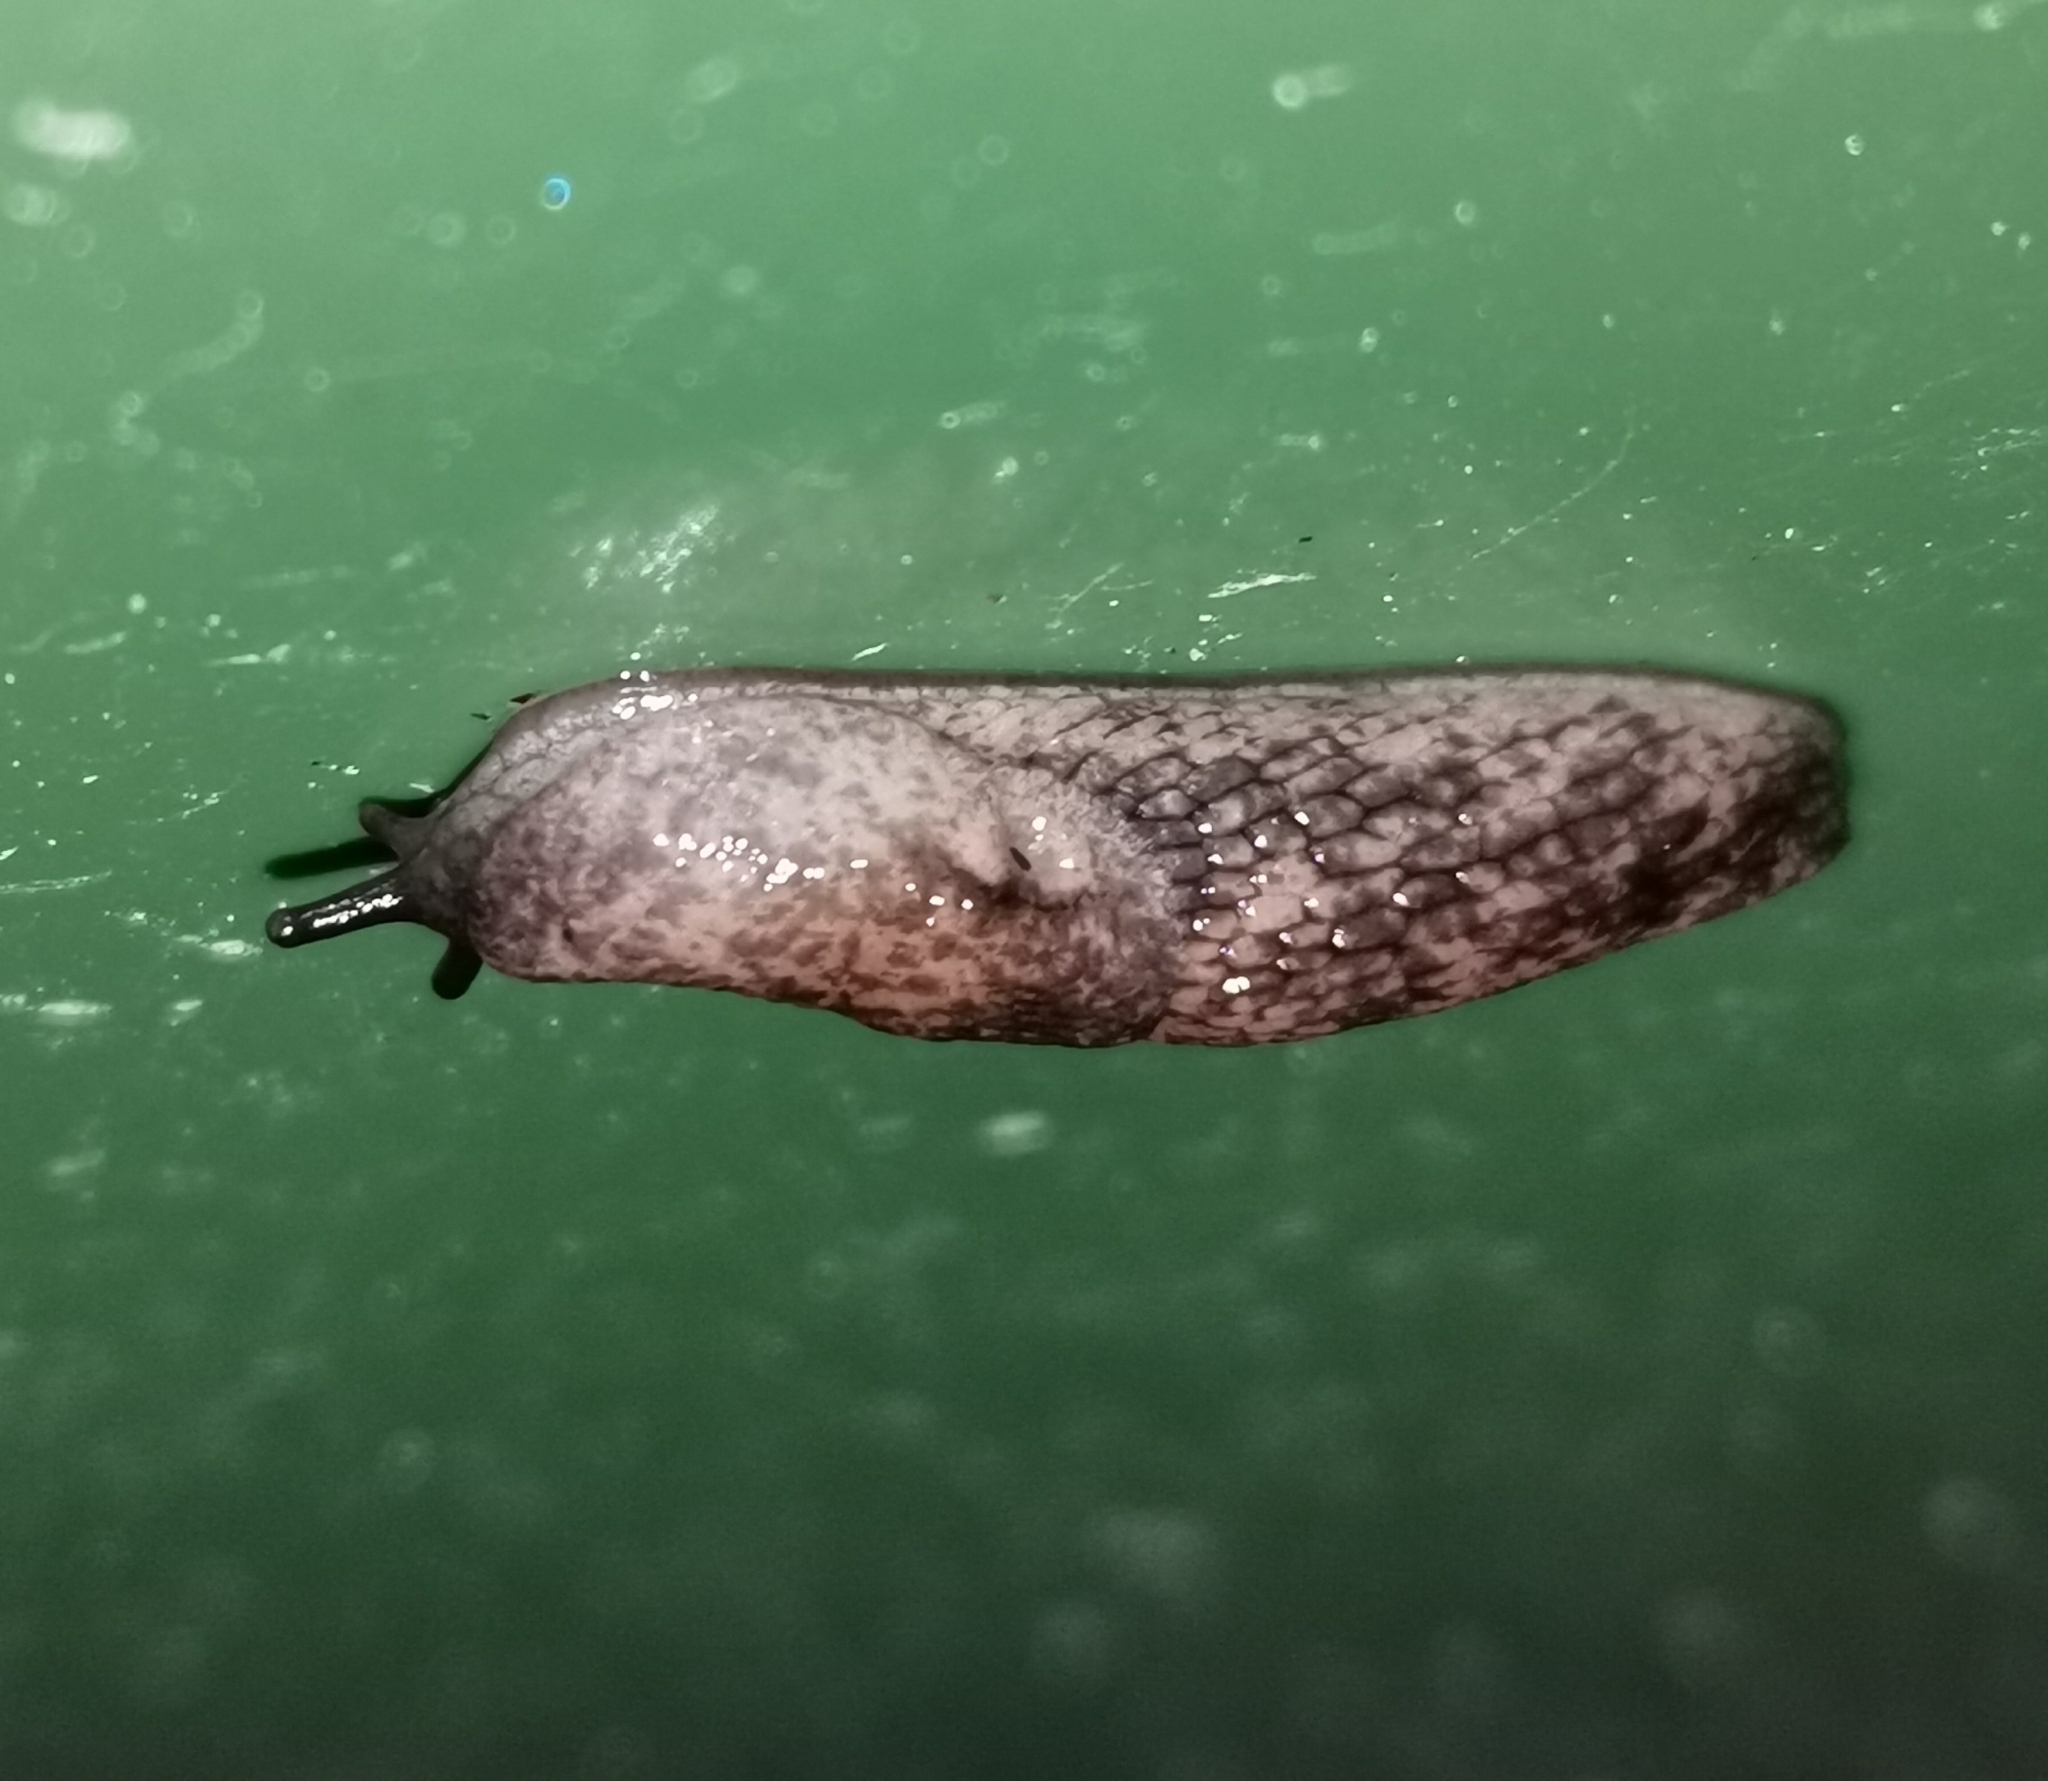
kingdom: Animalia
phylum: Mollusca
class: Gastropoda
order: Stylommatophora
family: Agriolimacidae
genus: Deroceras
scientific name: Deroceras reticulatum
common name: Gray field slug
